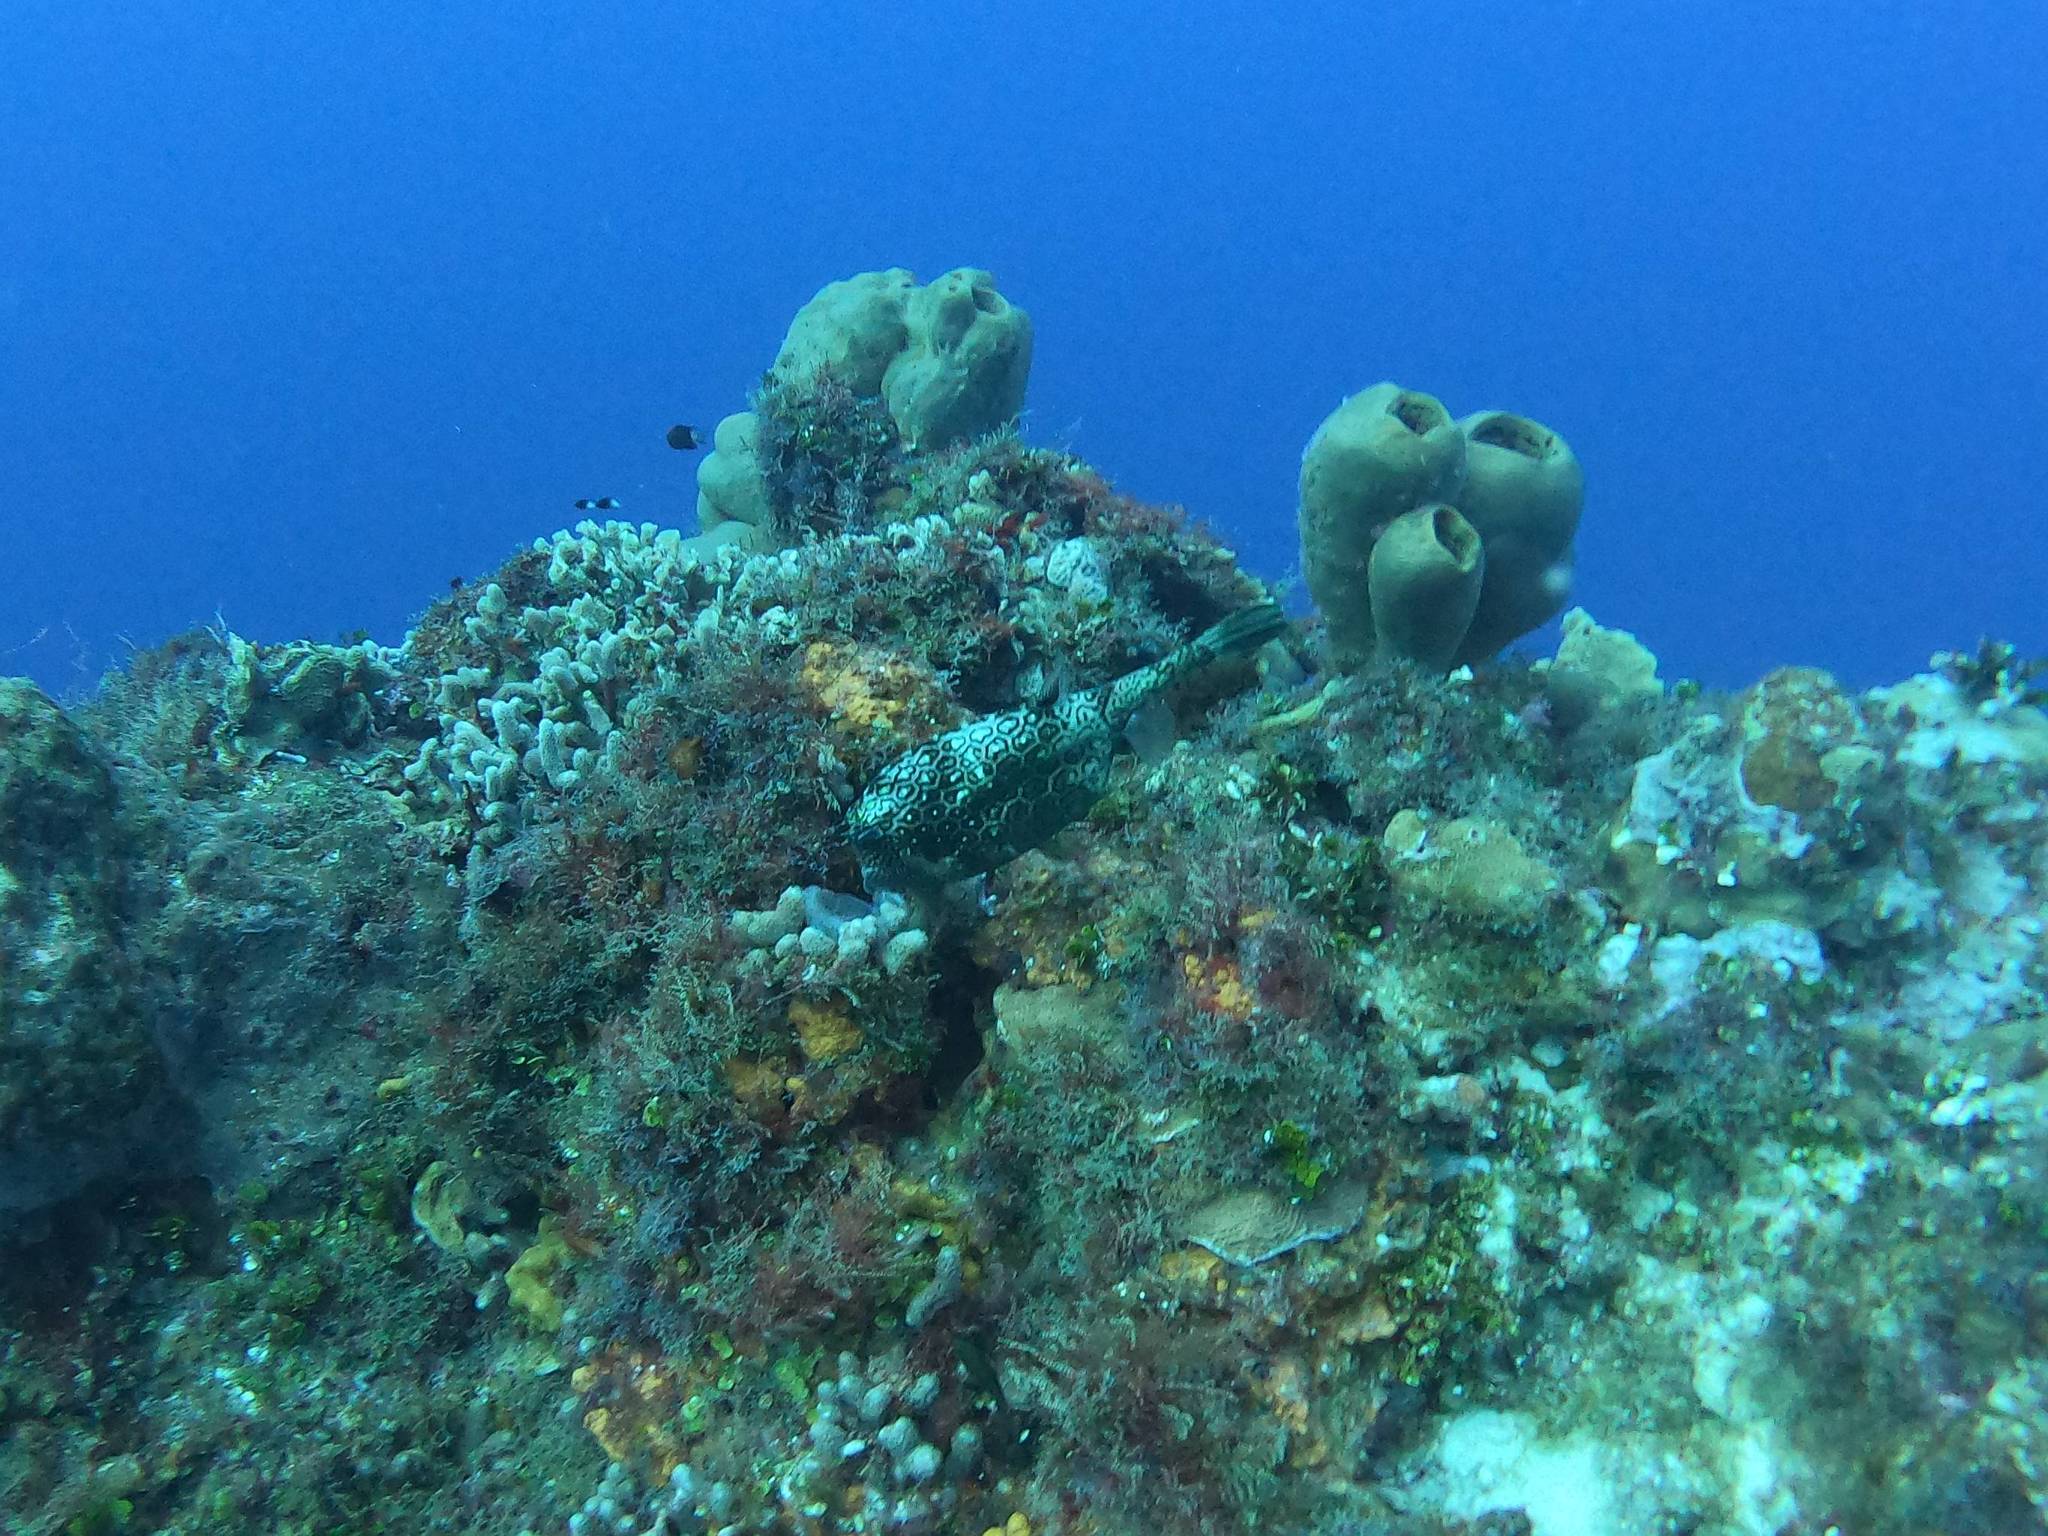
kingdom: Animalia
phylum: Chordata
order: Tetraodontiformes
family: Ostraciidae
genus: Acanthostracion
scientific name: Acanthostracion polygonius
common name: Honeycomb cowfish
